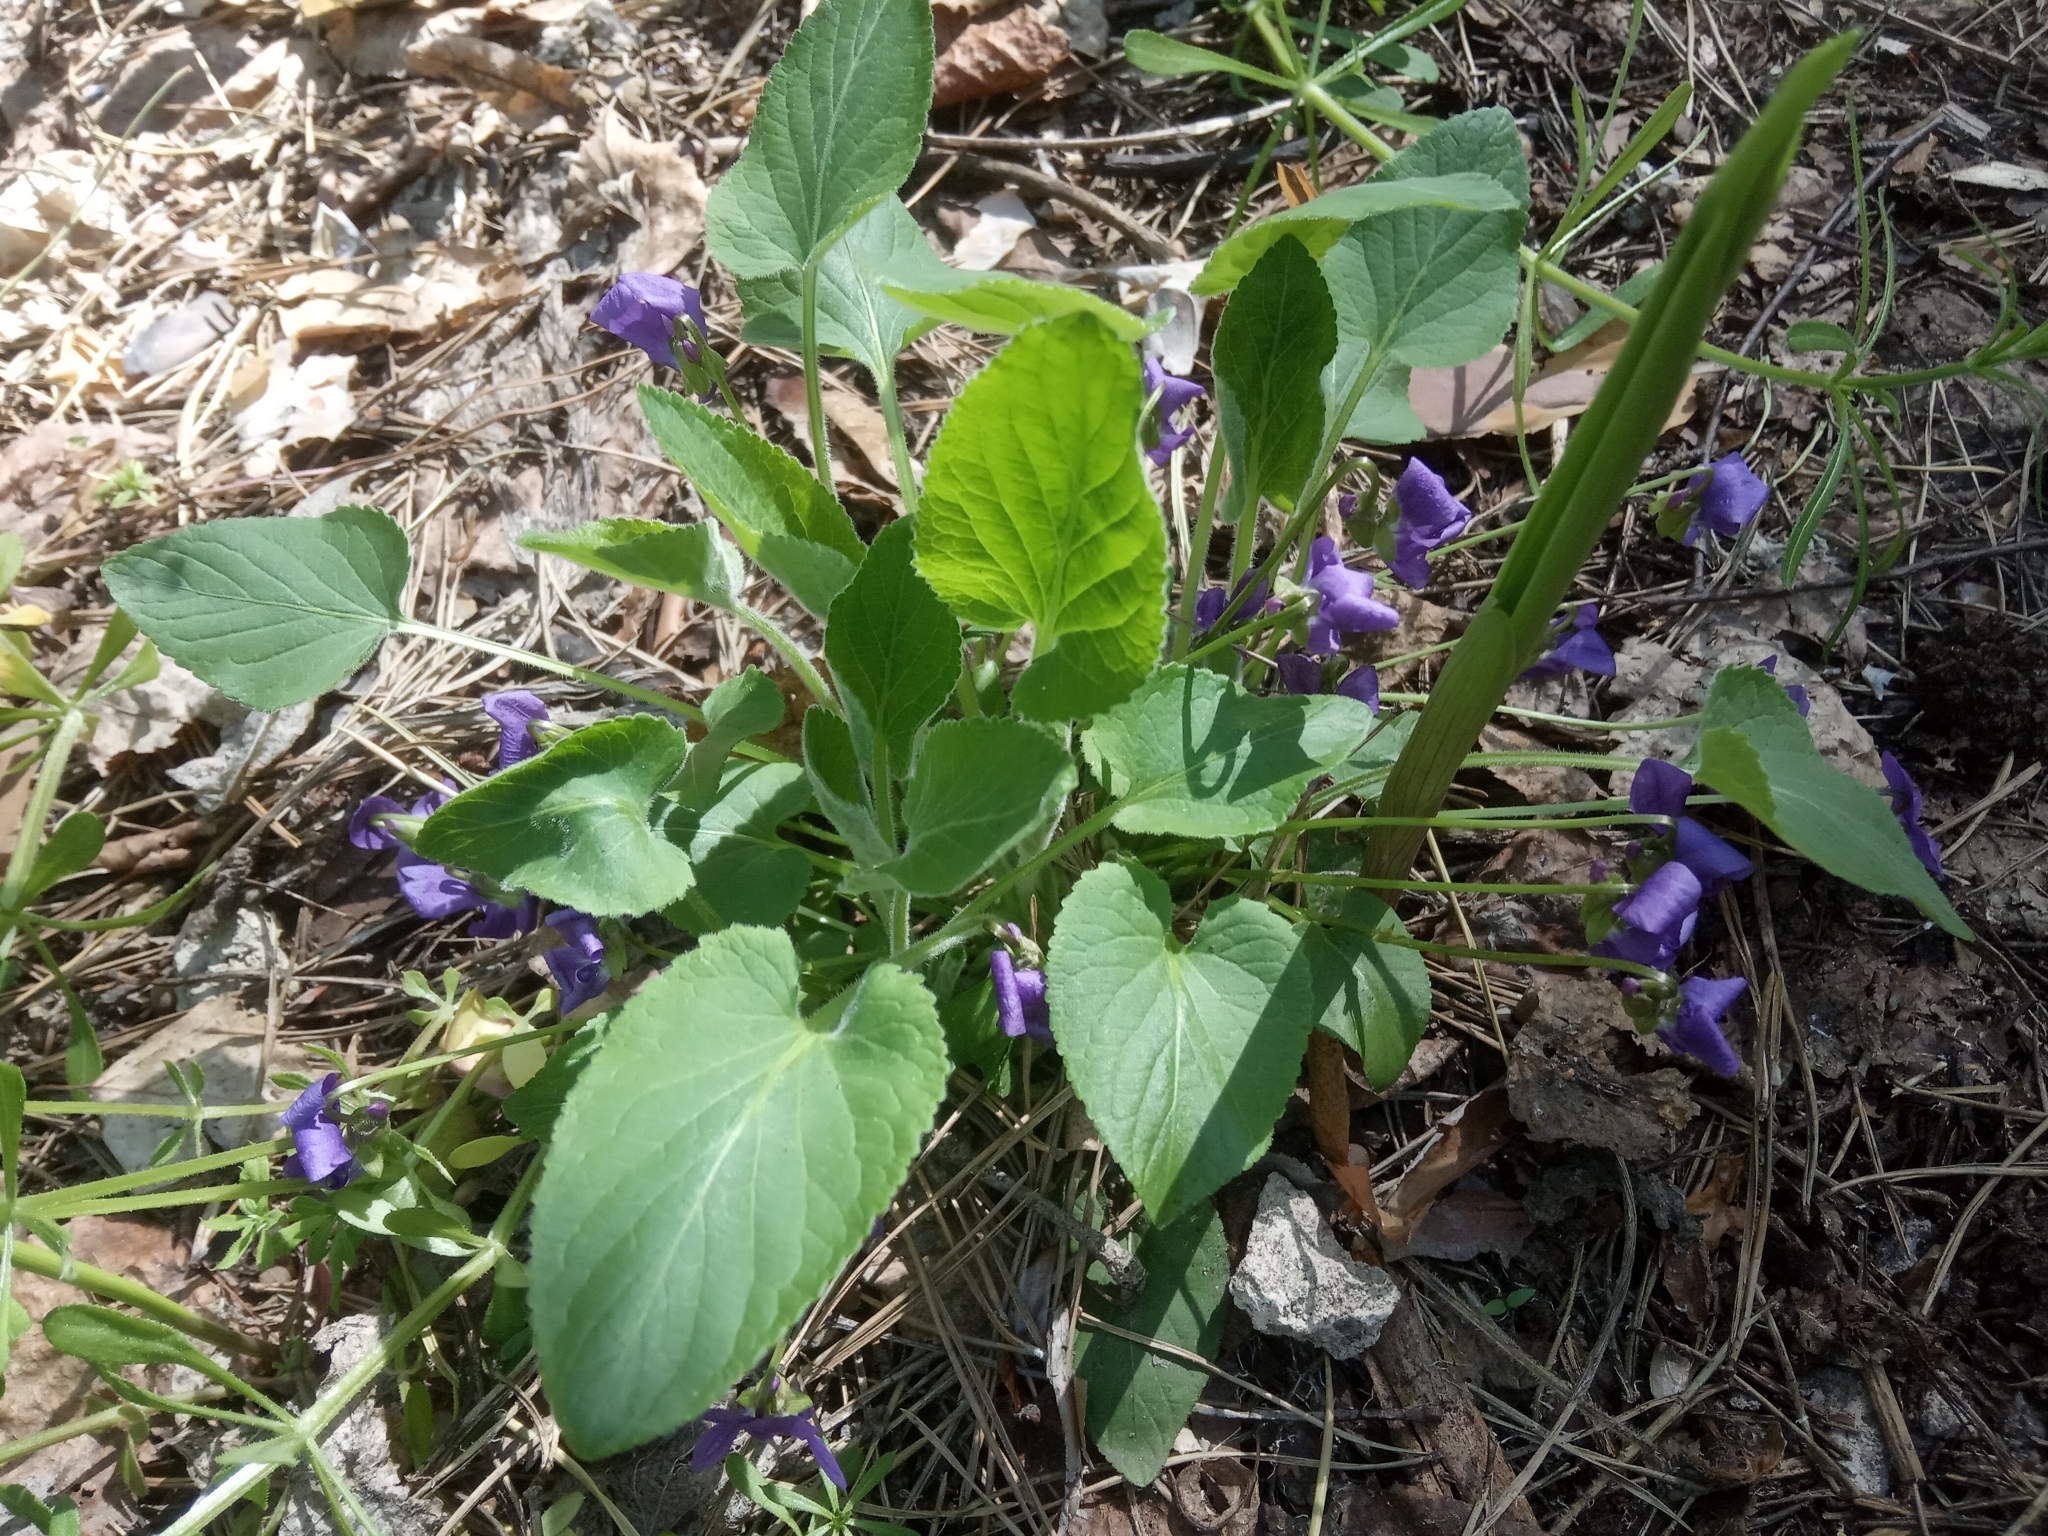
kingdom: Plantae
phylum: Tracheophyta
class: Magnoliopsida
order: Malpighiales
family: Violaceae
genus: Viola
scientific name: Viola hirta
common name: Hairy violet
